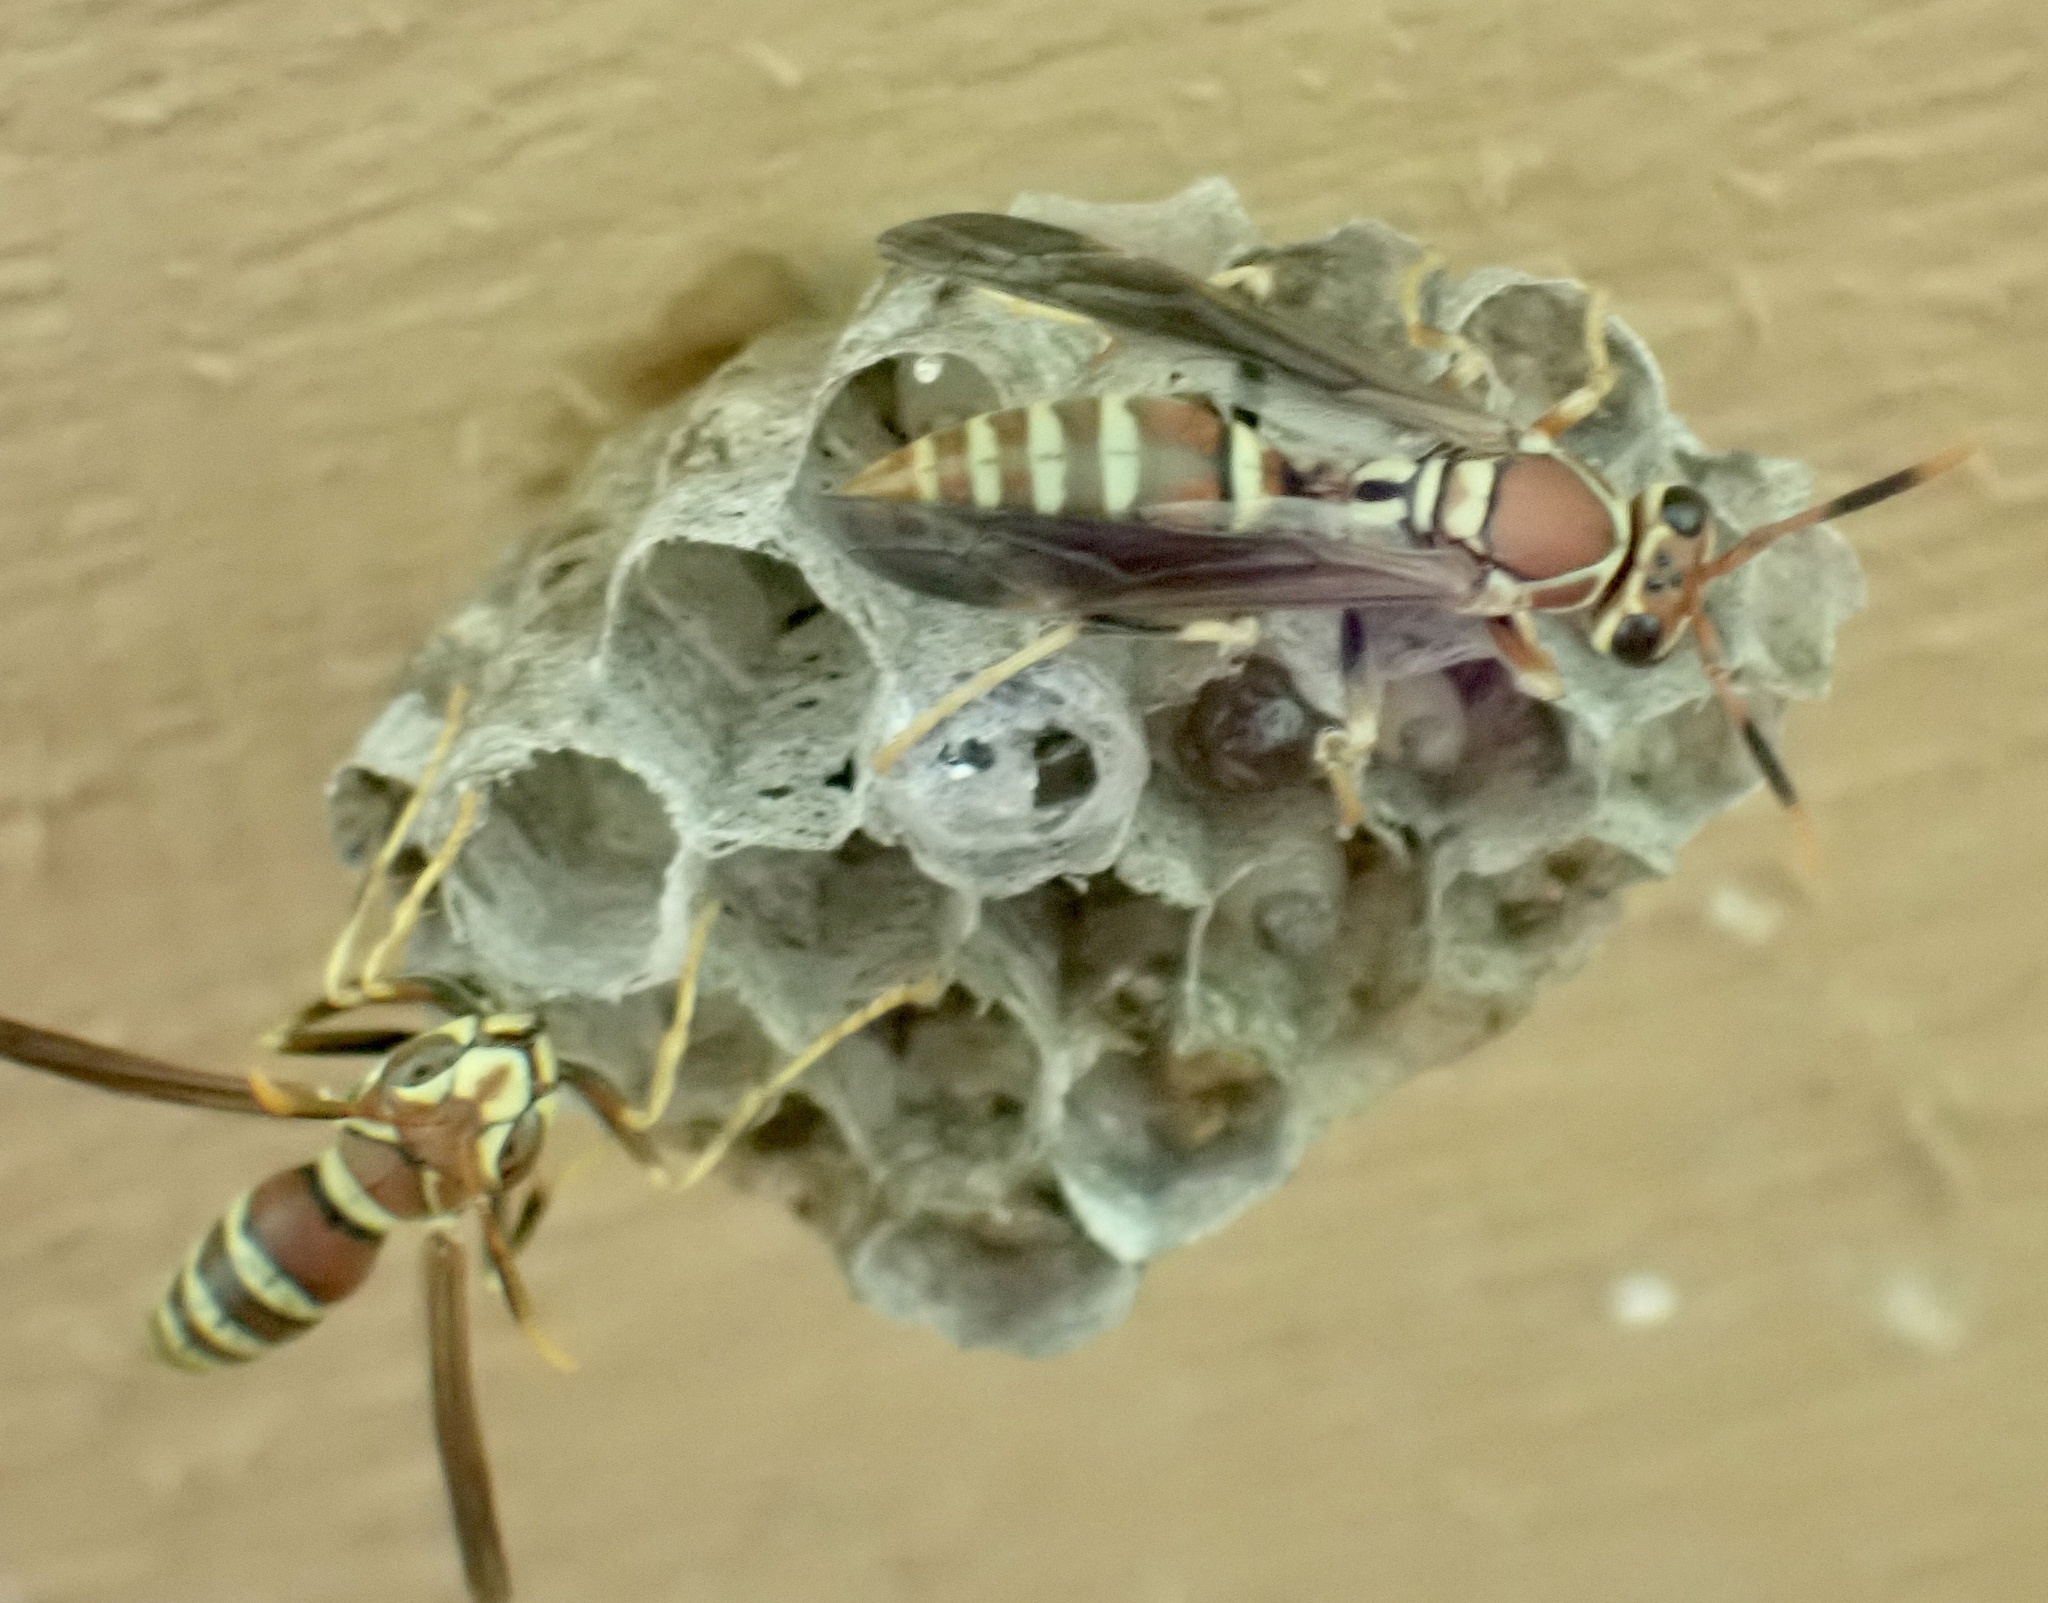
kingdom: Animalia
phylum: Arthropoda
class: Insecta
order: Hymenoptera
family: Eumenidae
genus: Polistes
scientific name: Polistes exclamans
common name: Paper wasp
